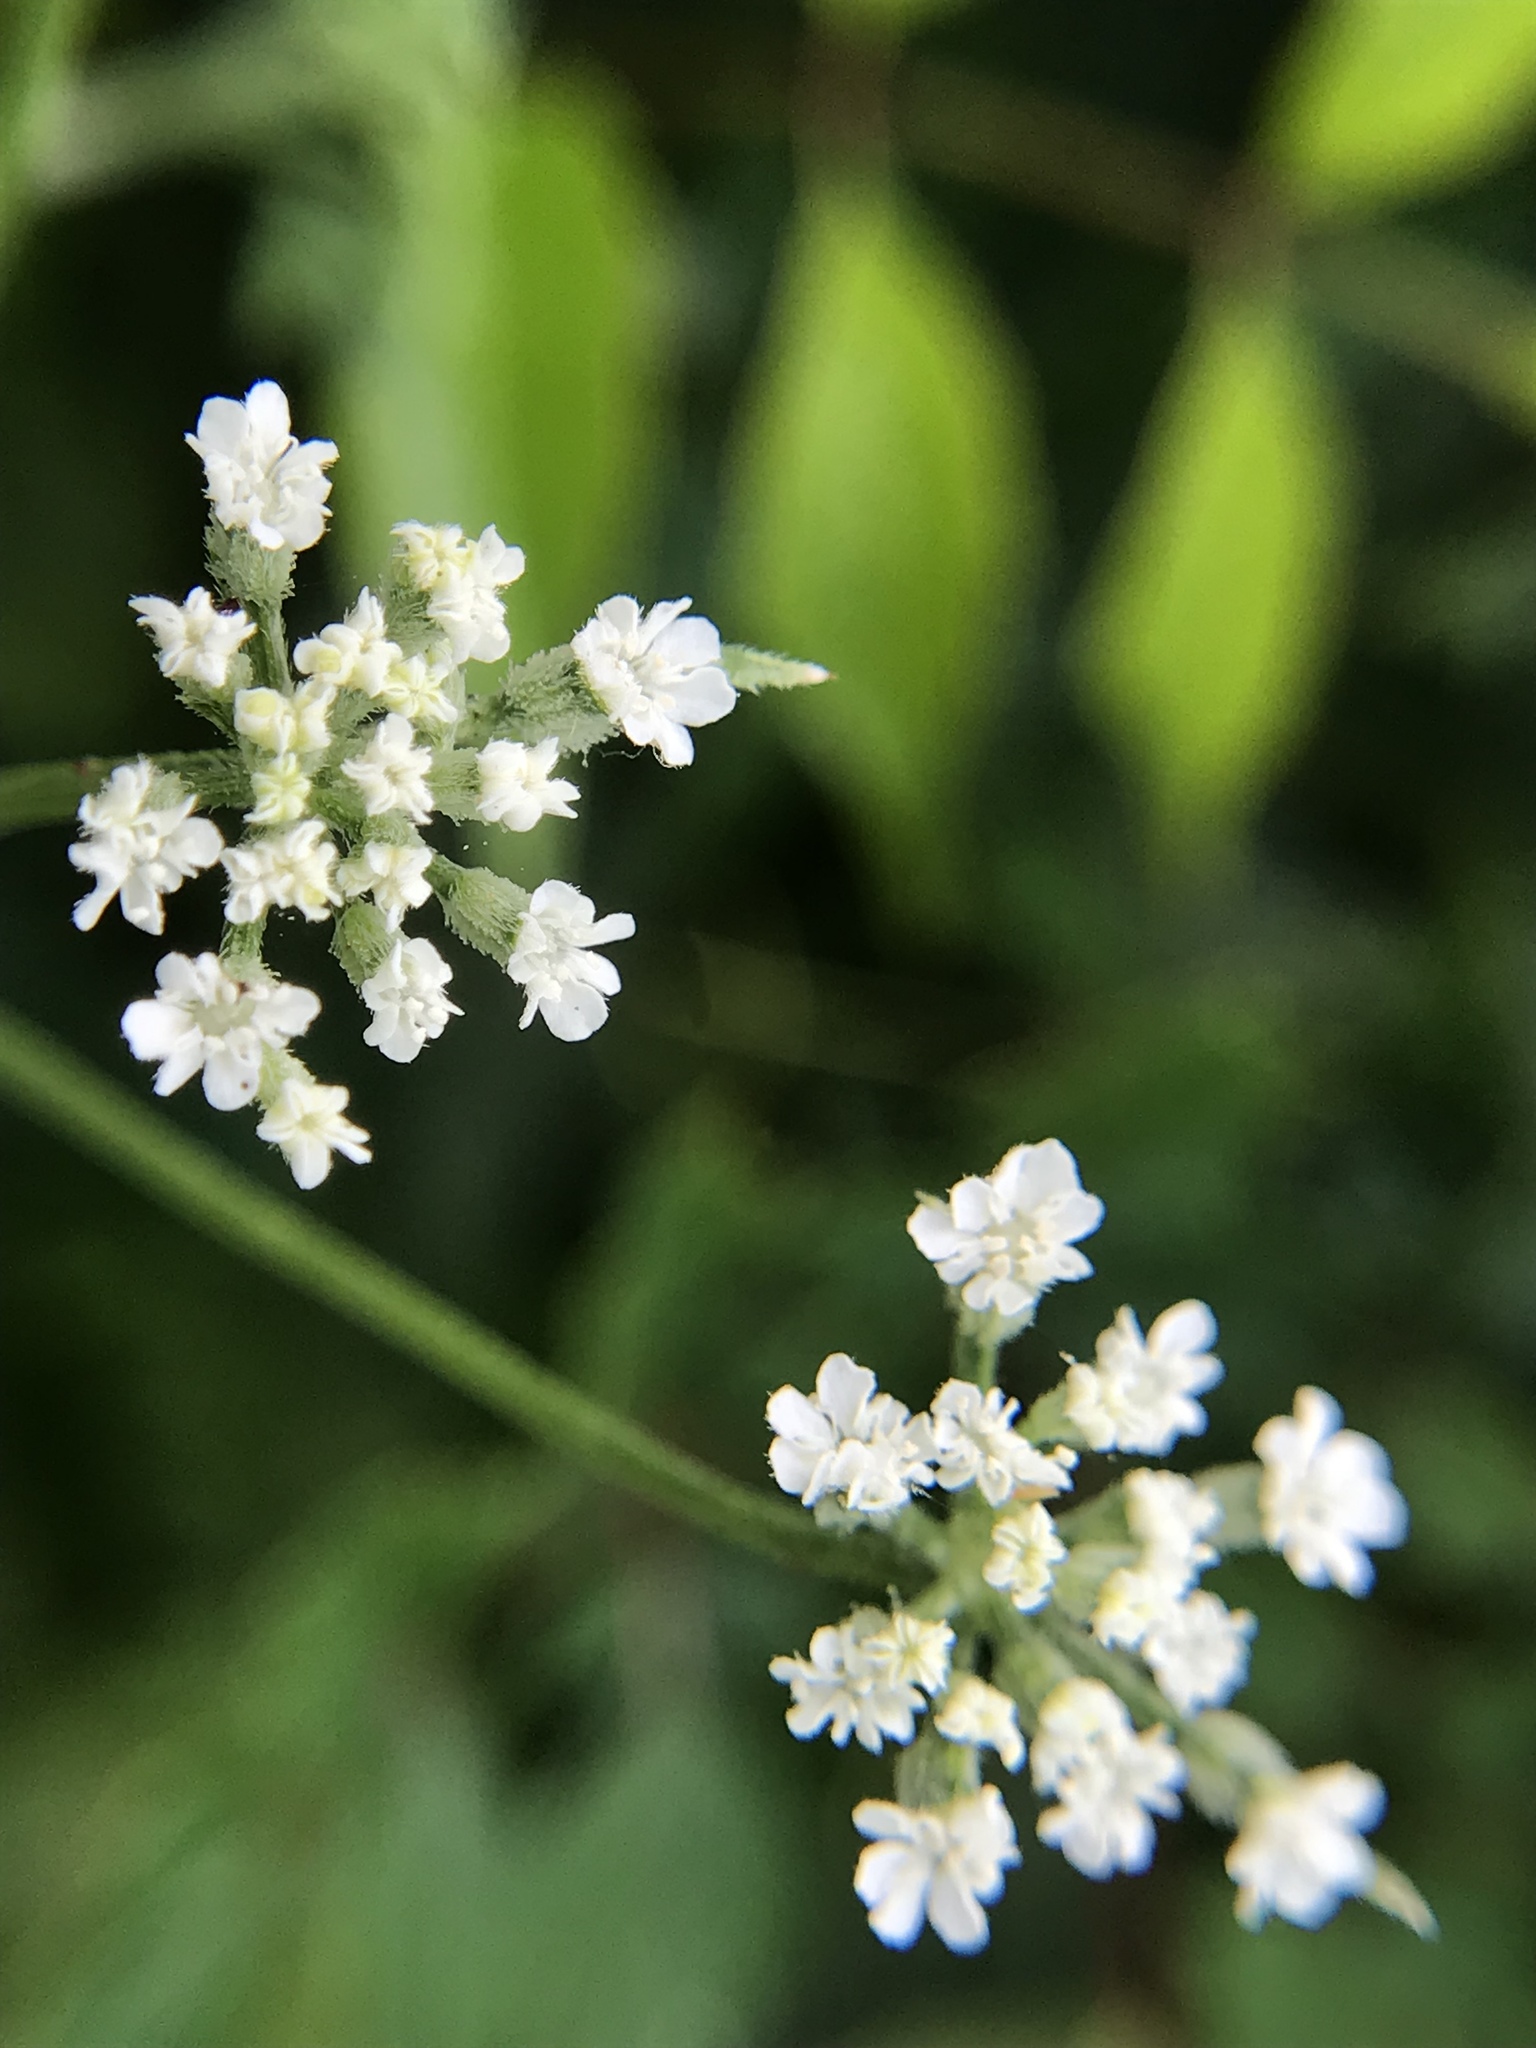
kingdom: Plantae
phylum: Tracheophyta
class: Magnoliopsida
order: Apiales
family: Apiaceae
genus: Torilis
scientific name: Torilis arvensis
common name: Spreading hedge-parsley
